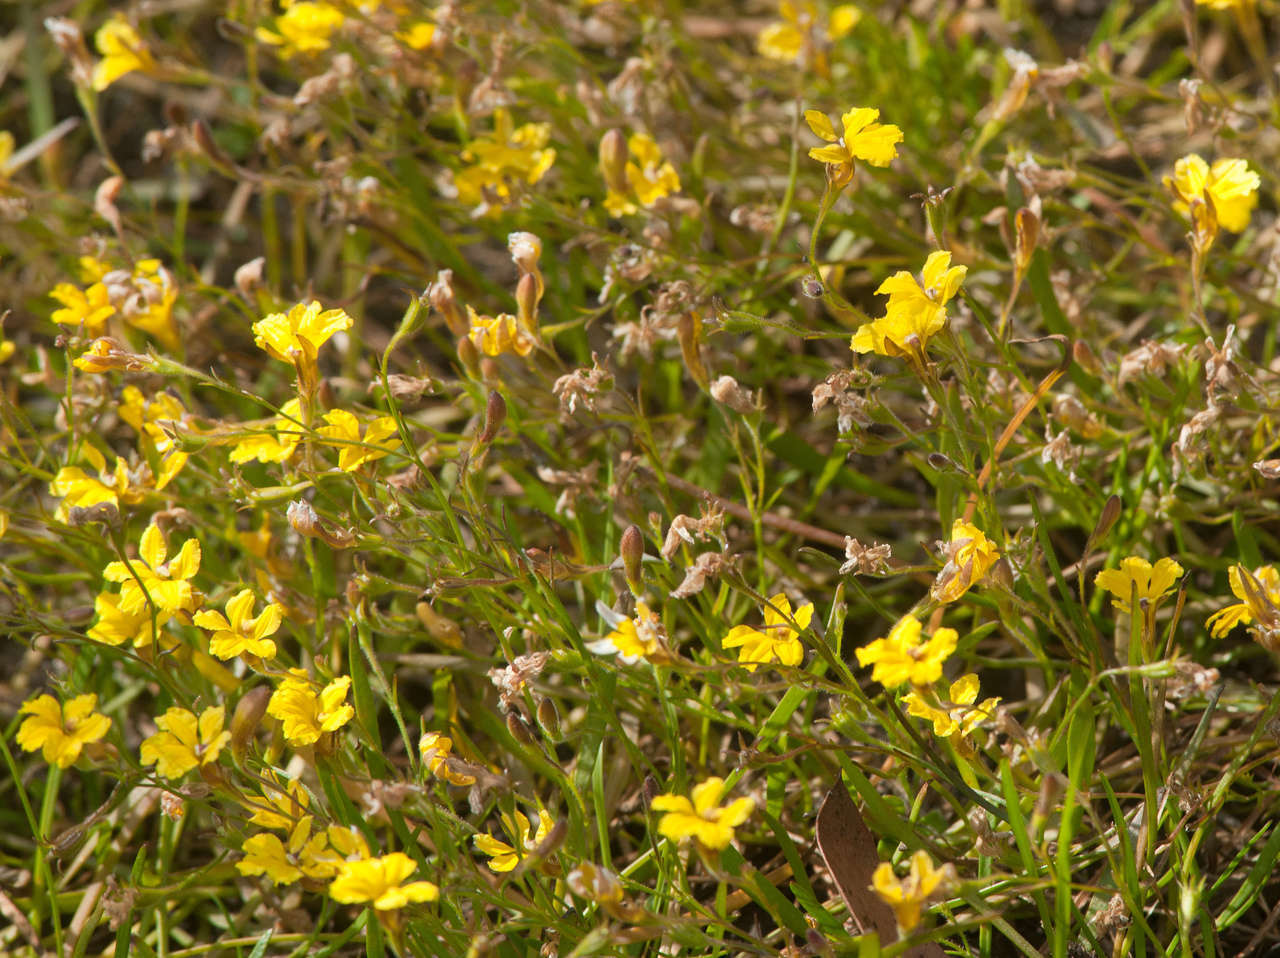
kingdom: Plantae
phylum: Tracheophyta
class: Magnoliopsida
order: Asterales
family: Goodeniaceae
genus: Goodenia
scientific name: Goodenia humilis
